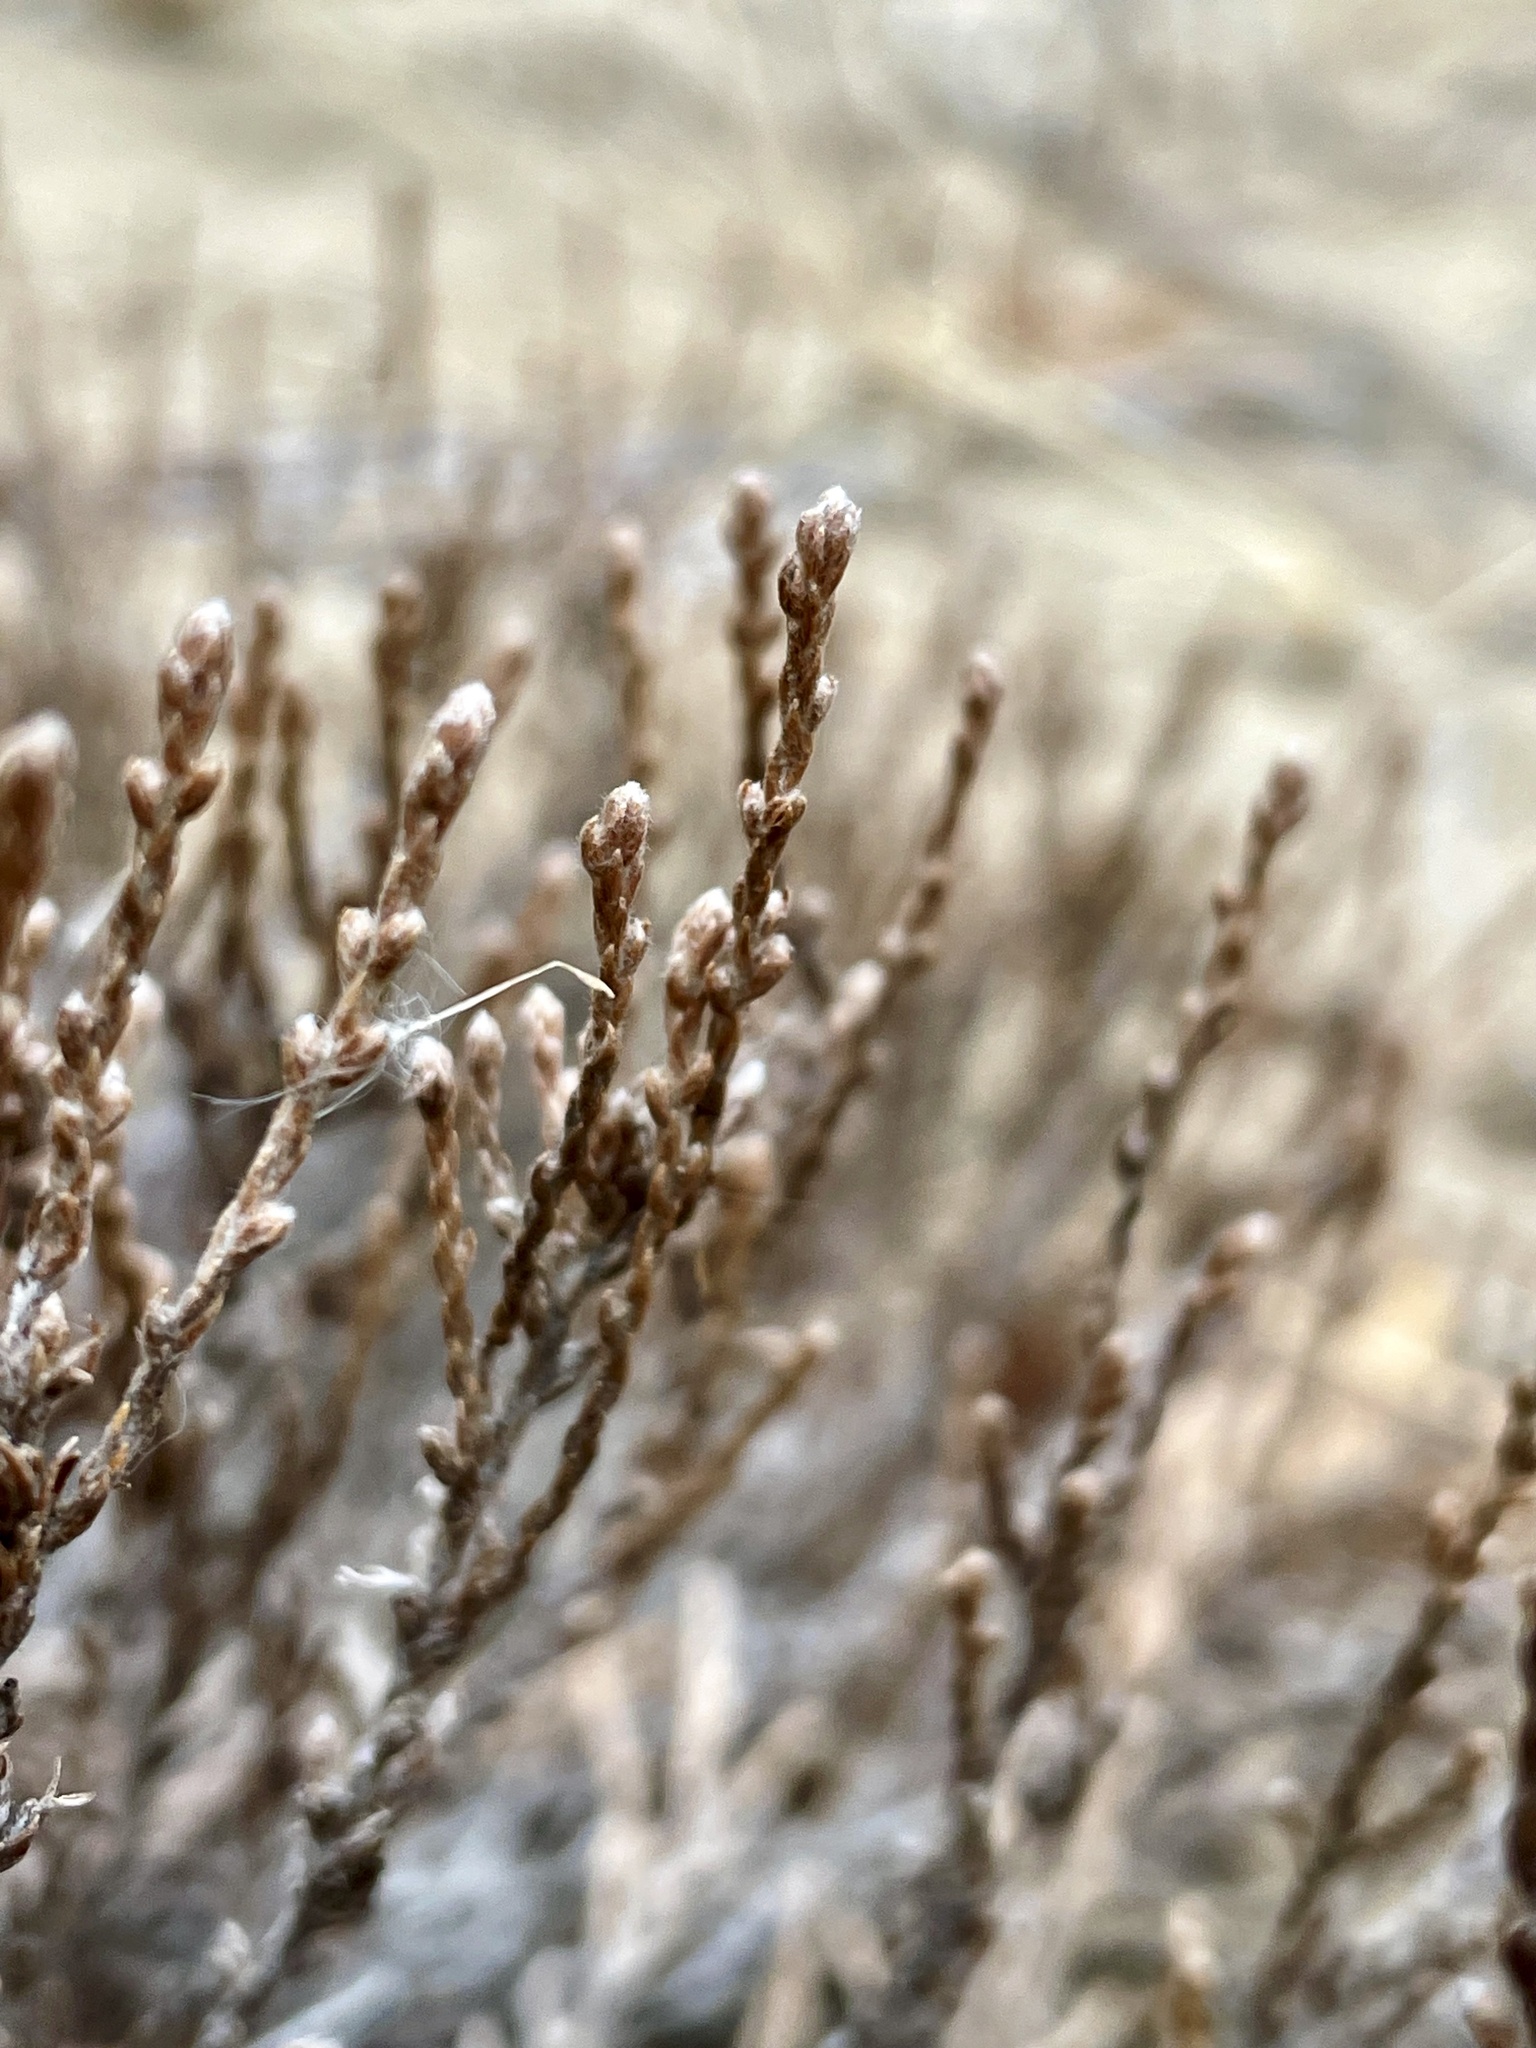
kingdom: Plantae
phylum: Tracheophyta
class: Magnoliopsida
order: Malvales
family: Cistaceae
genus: Hudsonia
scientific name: Hudsonia tomentosa
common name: Beach-heath
